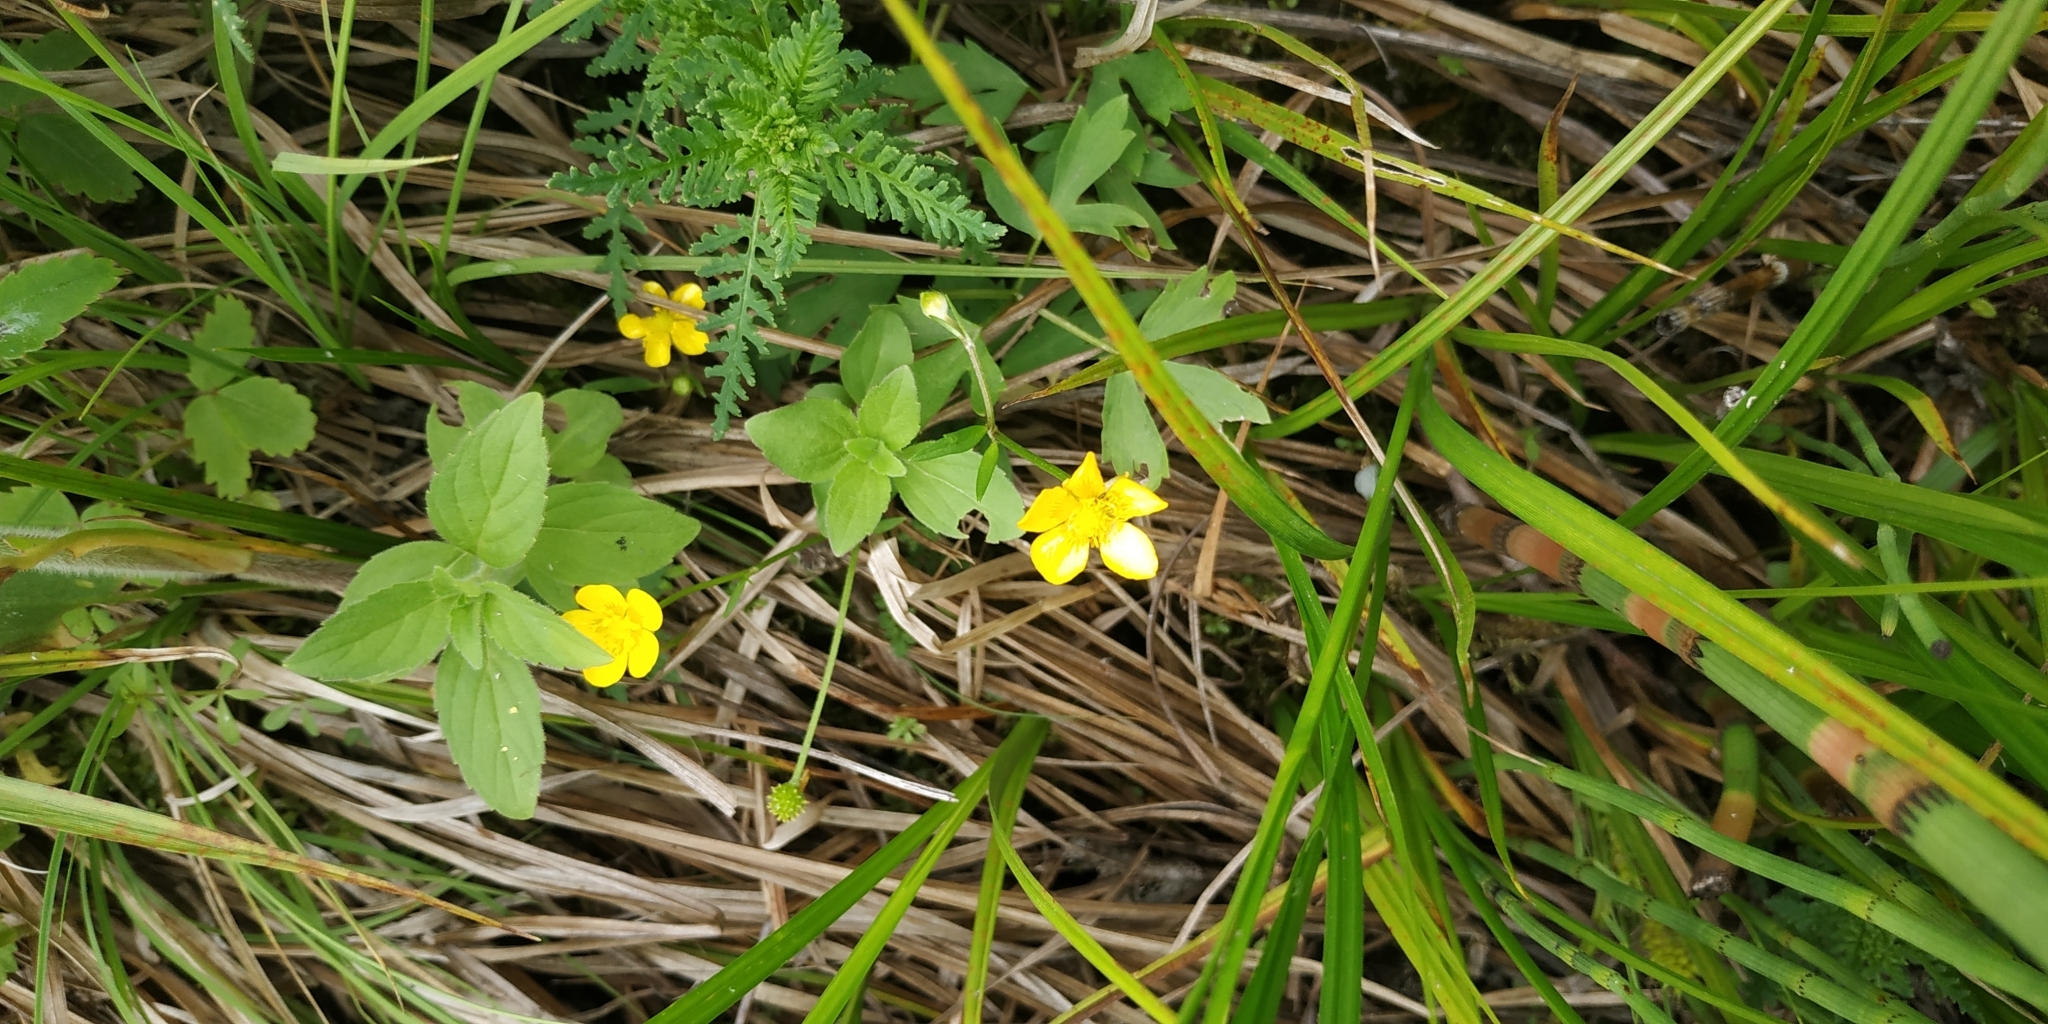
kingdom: Plantae
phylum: Tracheophyta
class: Magnoliopsida
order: Ranunculales
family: Ranunculaceae
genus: Ranunculus
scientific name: Ranunculus repens
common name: Creeping buttercup
